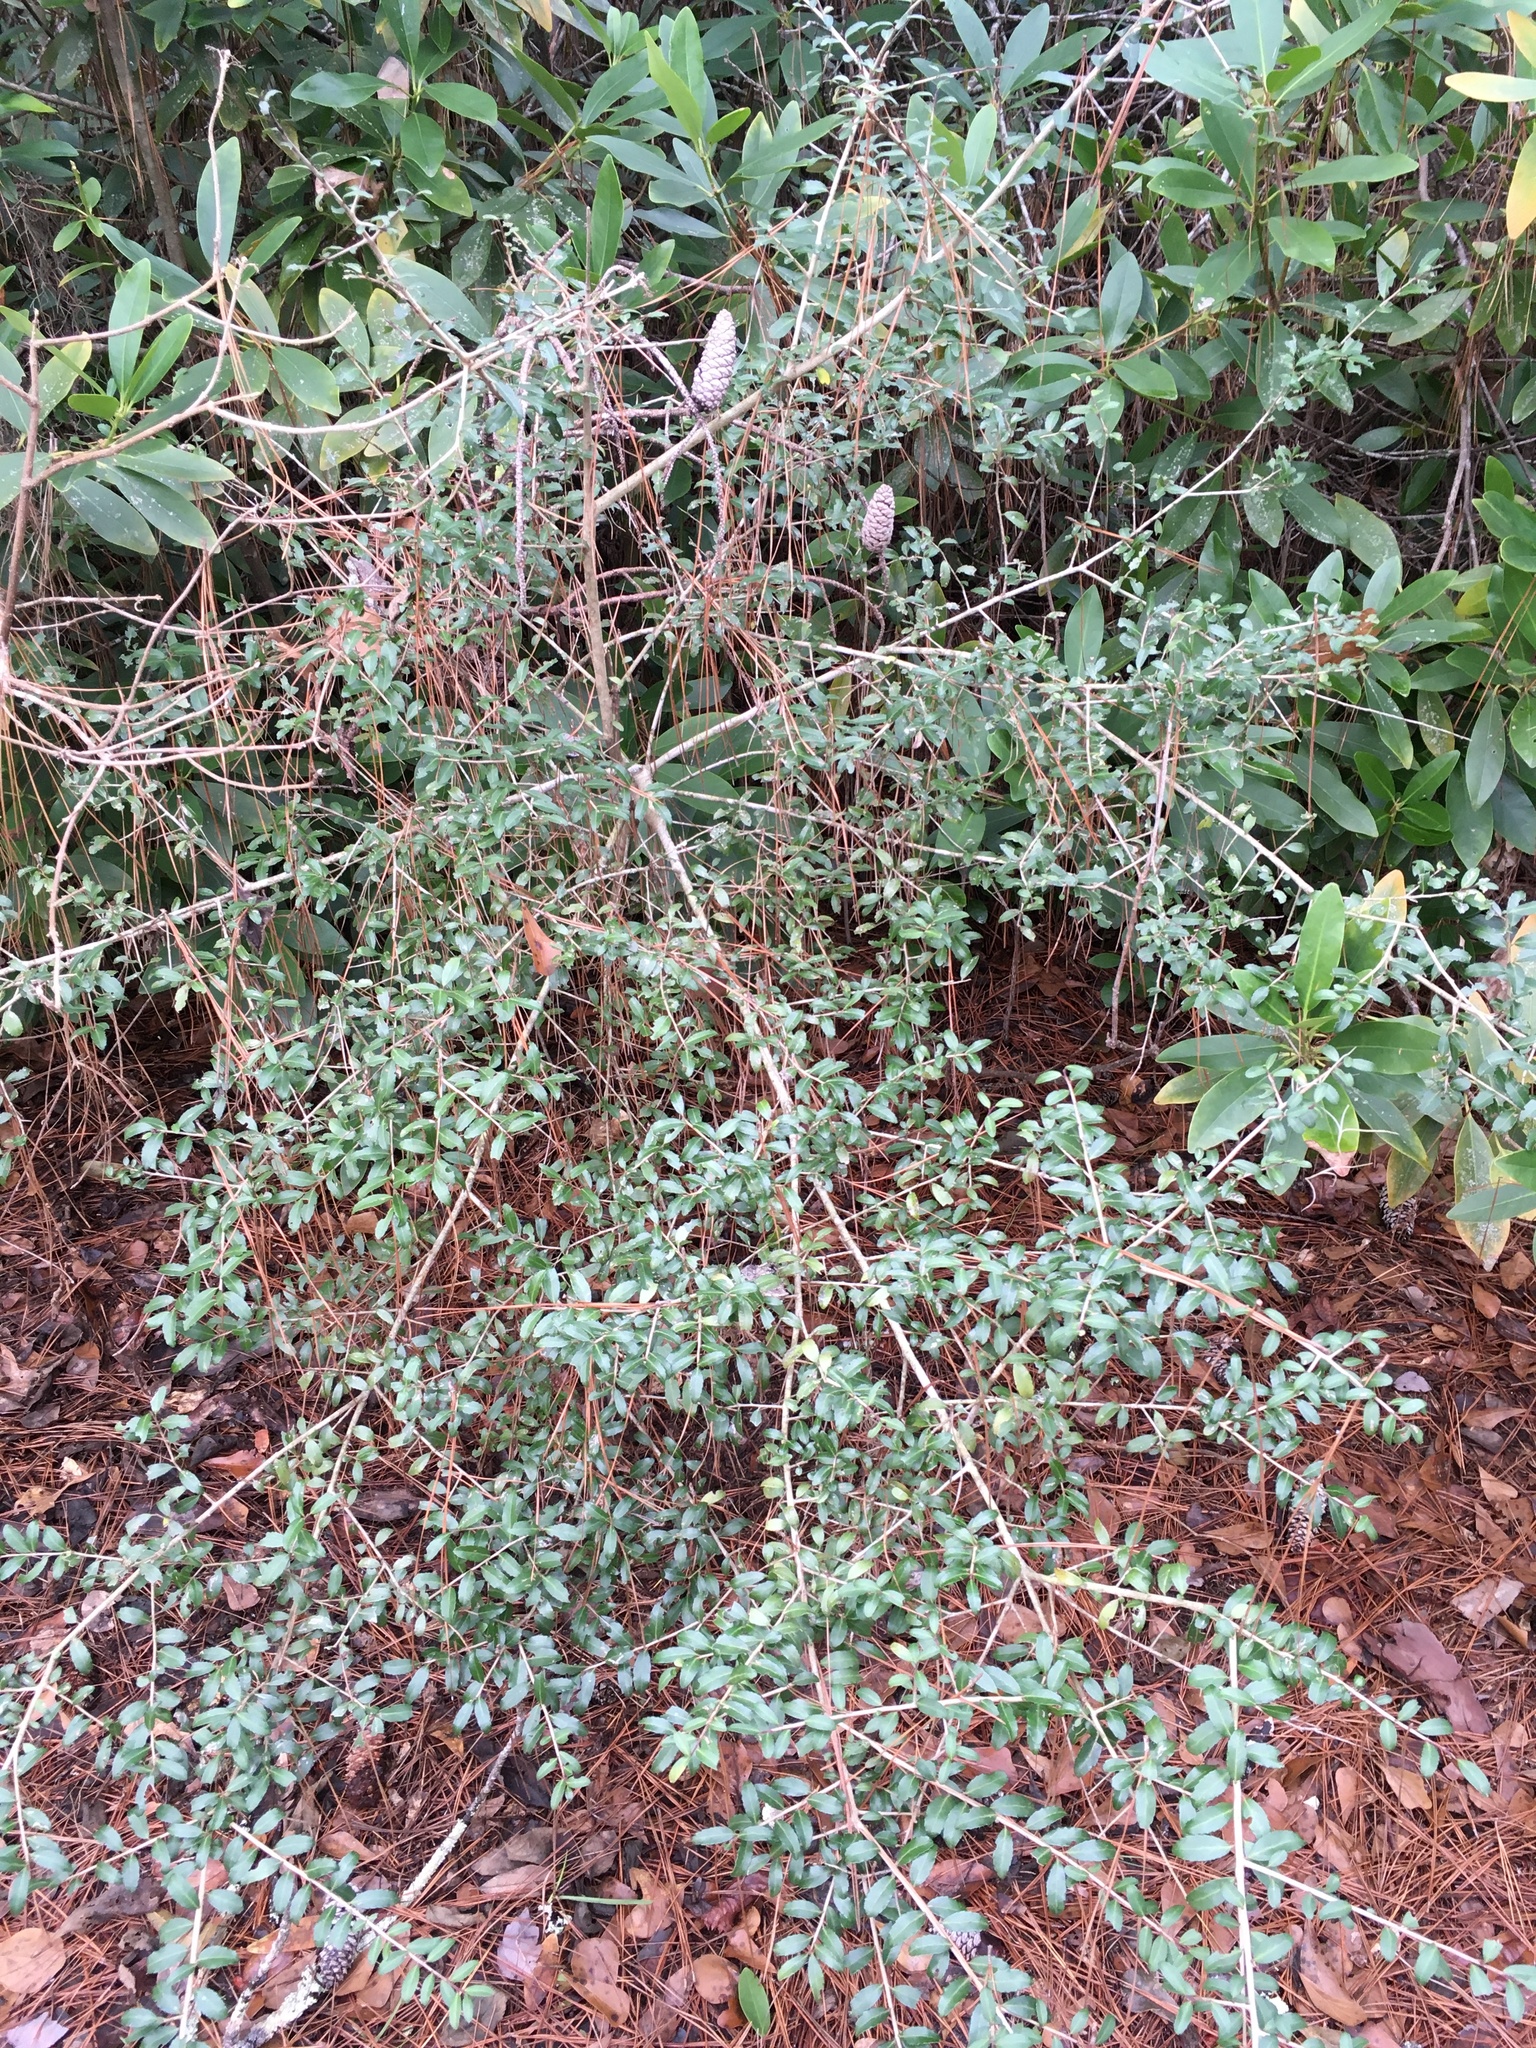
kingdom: Plantae
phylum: Tracheophyta
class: Magnoliopsida
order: Aquifoliales
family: Aquifoliaceae
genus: Ilex
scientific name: Ilex vomitoria
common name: Yaupon holly
